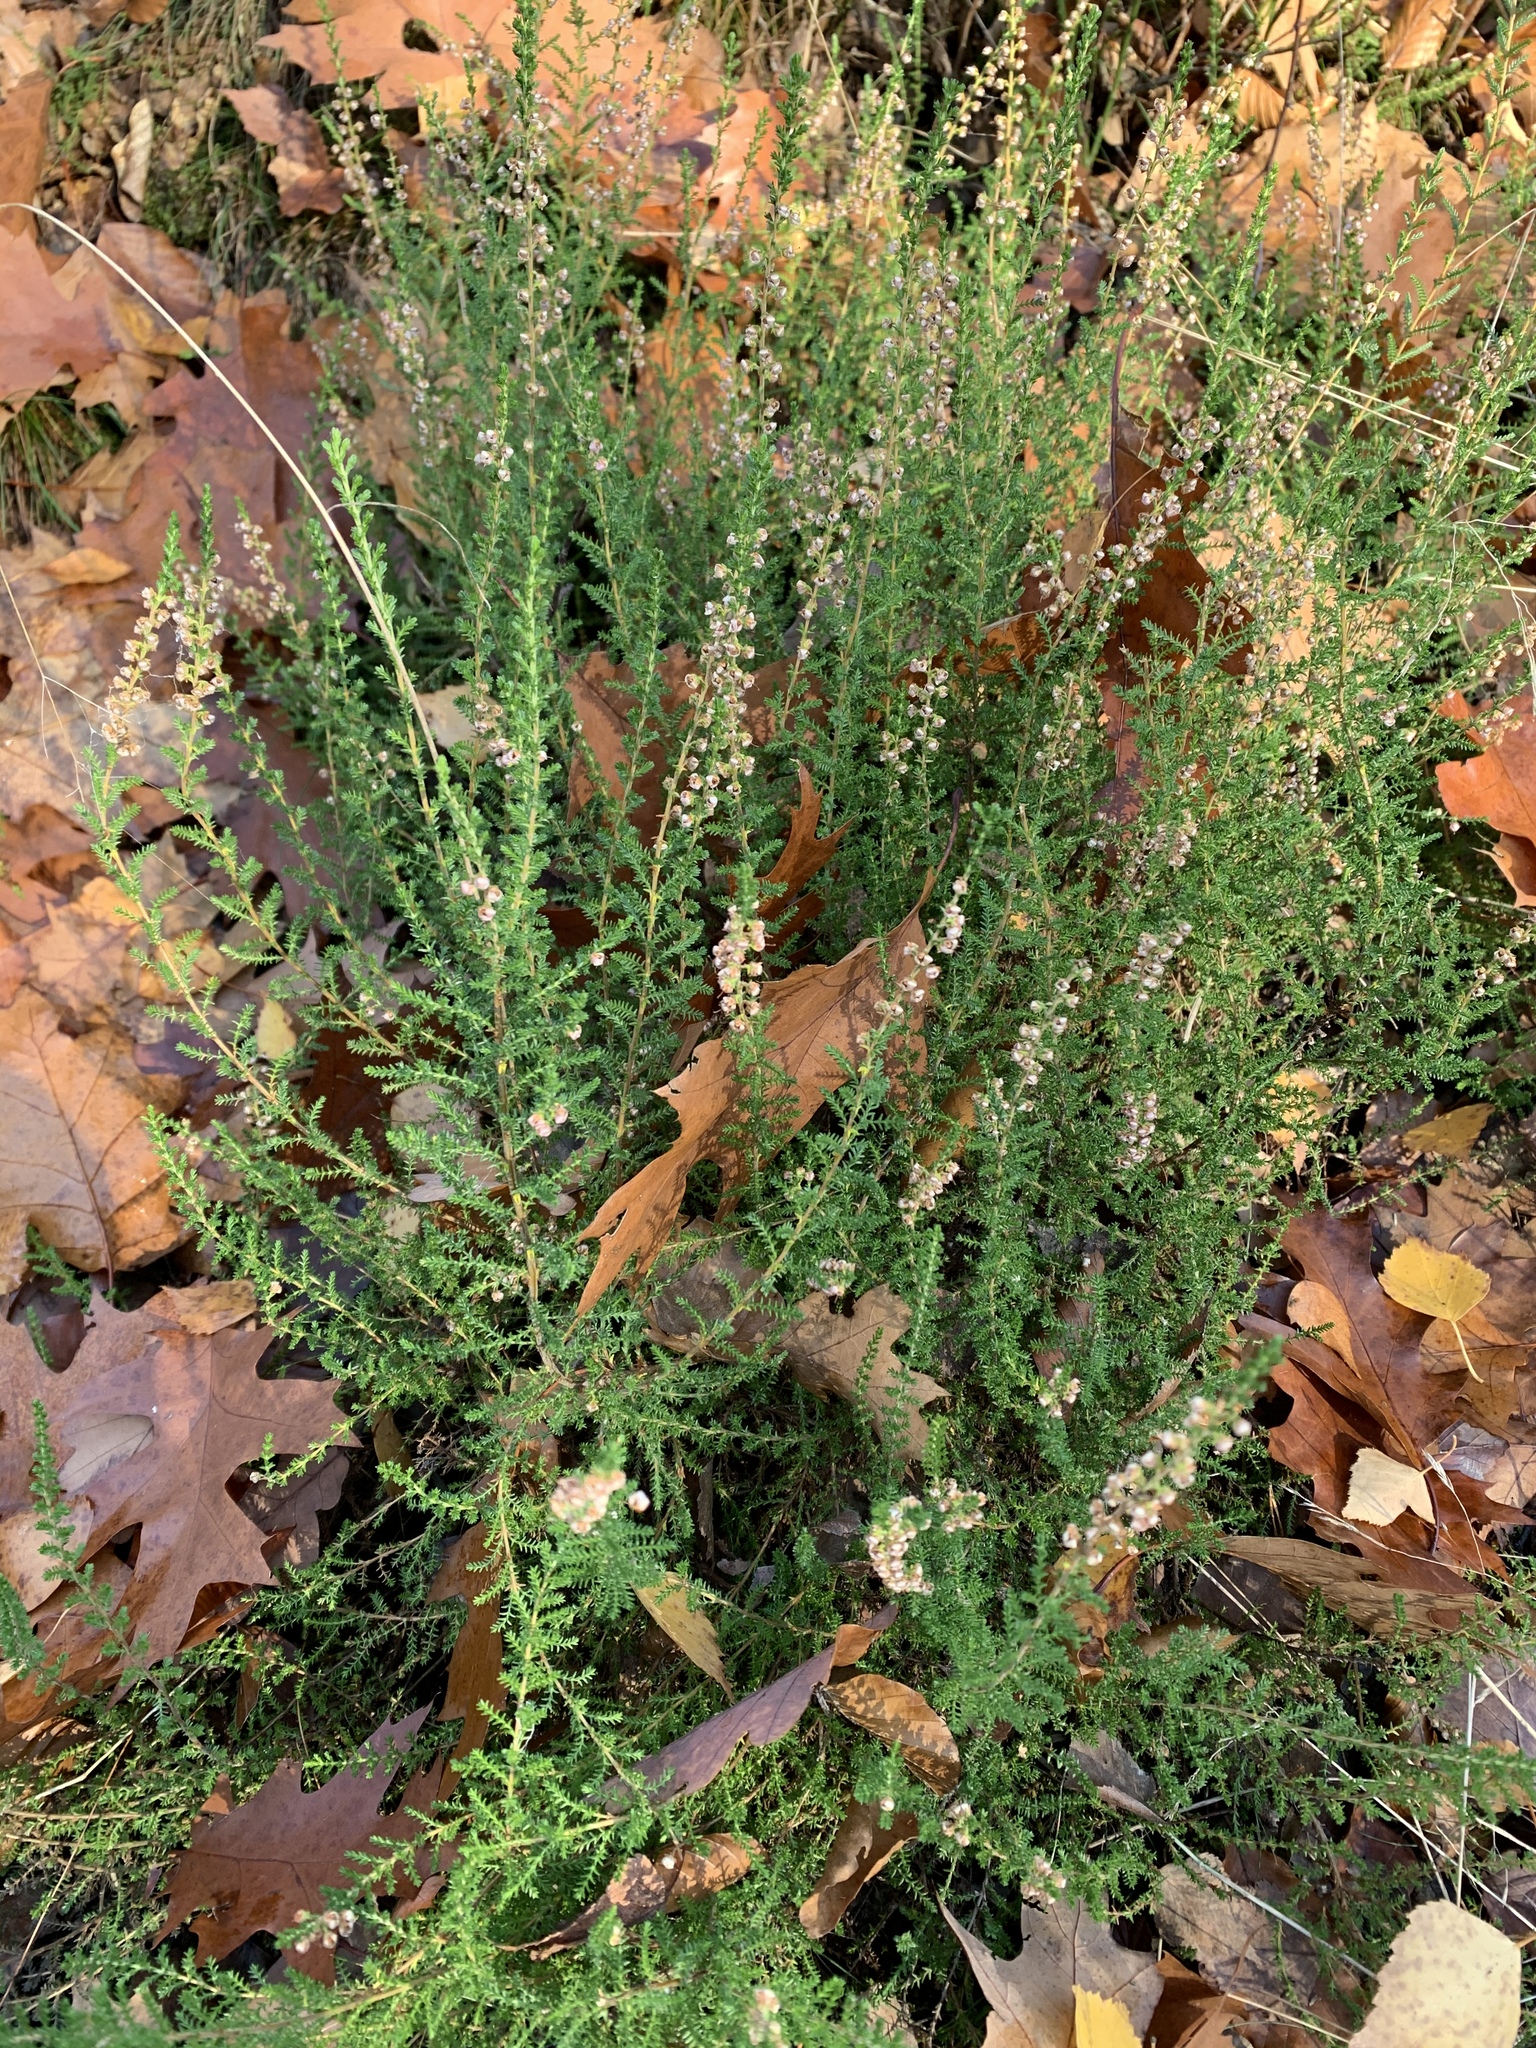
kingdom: Plantae
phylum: Tracheophyta
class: Magnoliopsida
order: Ericales
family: Ericaceae
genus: Calluna
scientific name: Calluna vulgaris
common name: Heather
